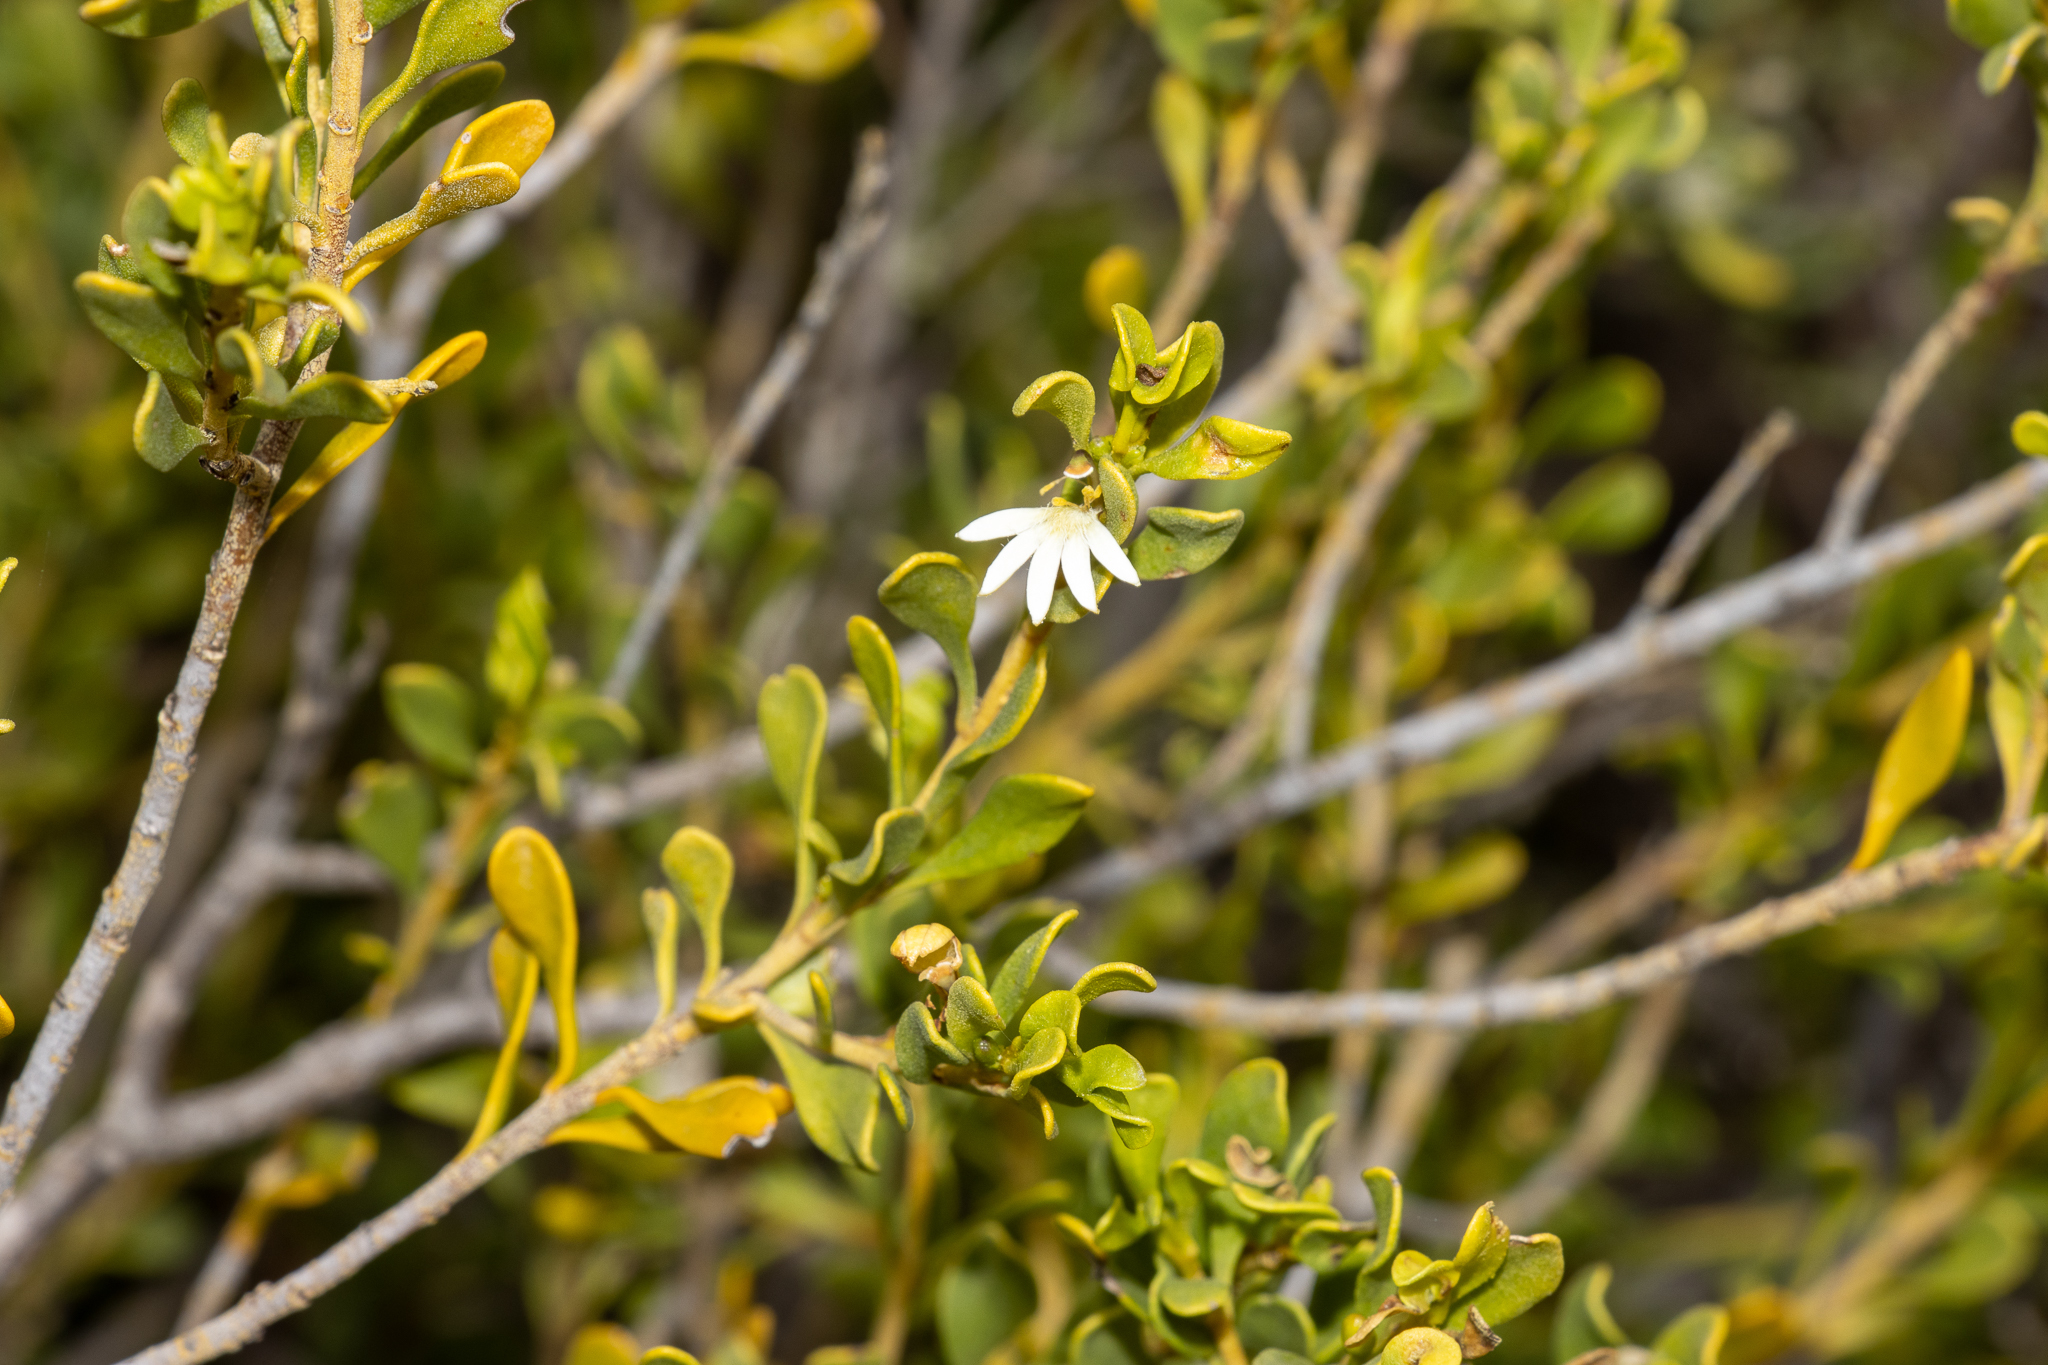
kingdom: Plantae
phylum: Tracheophyta
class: Magnoliopsida
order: Asterales
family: Goodeniaceae
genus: Scaevola
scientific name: Scaevola bursariifolia
